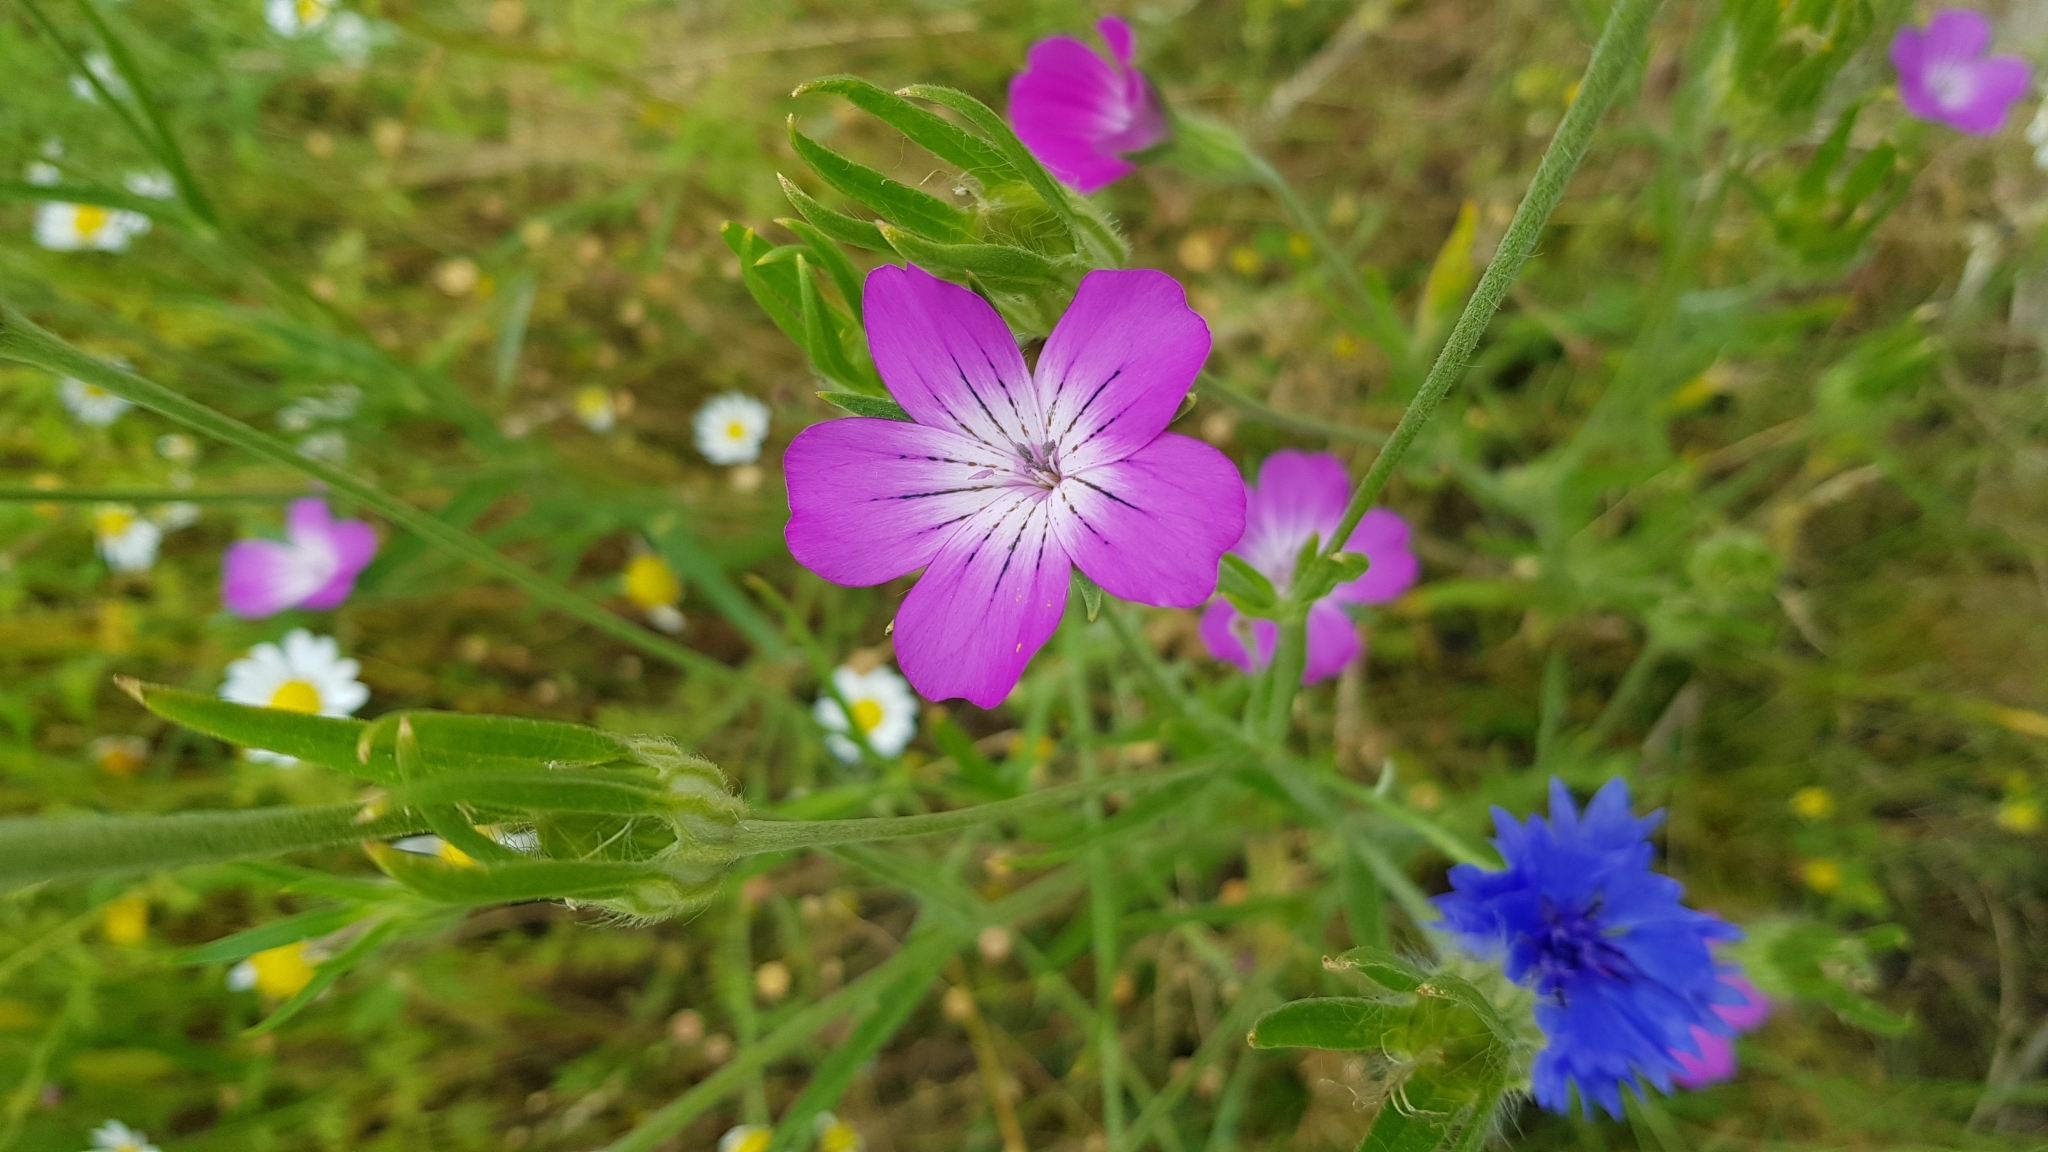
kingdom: Plantae
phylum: Tracheophyta
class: Magnoliopsida
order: Caryophyllales
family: Caryophyllaceae
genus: Agrostemma
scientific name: Agrostemma githago
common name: Common corncockle
